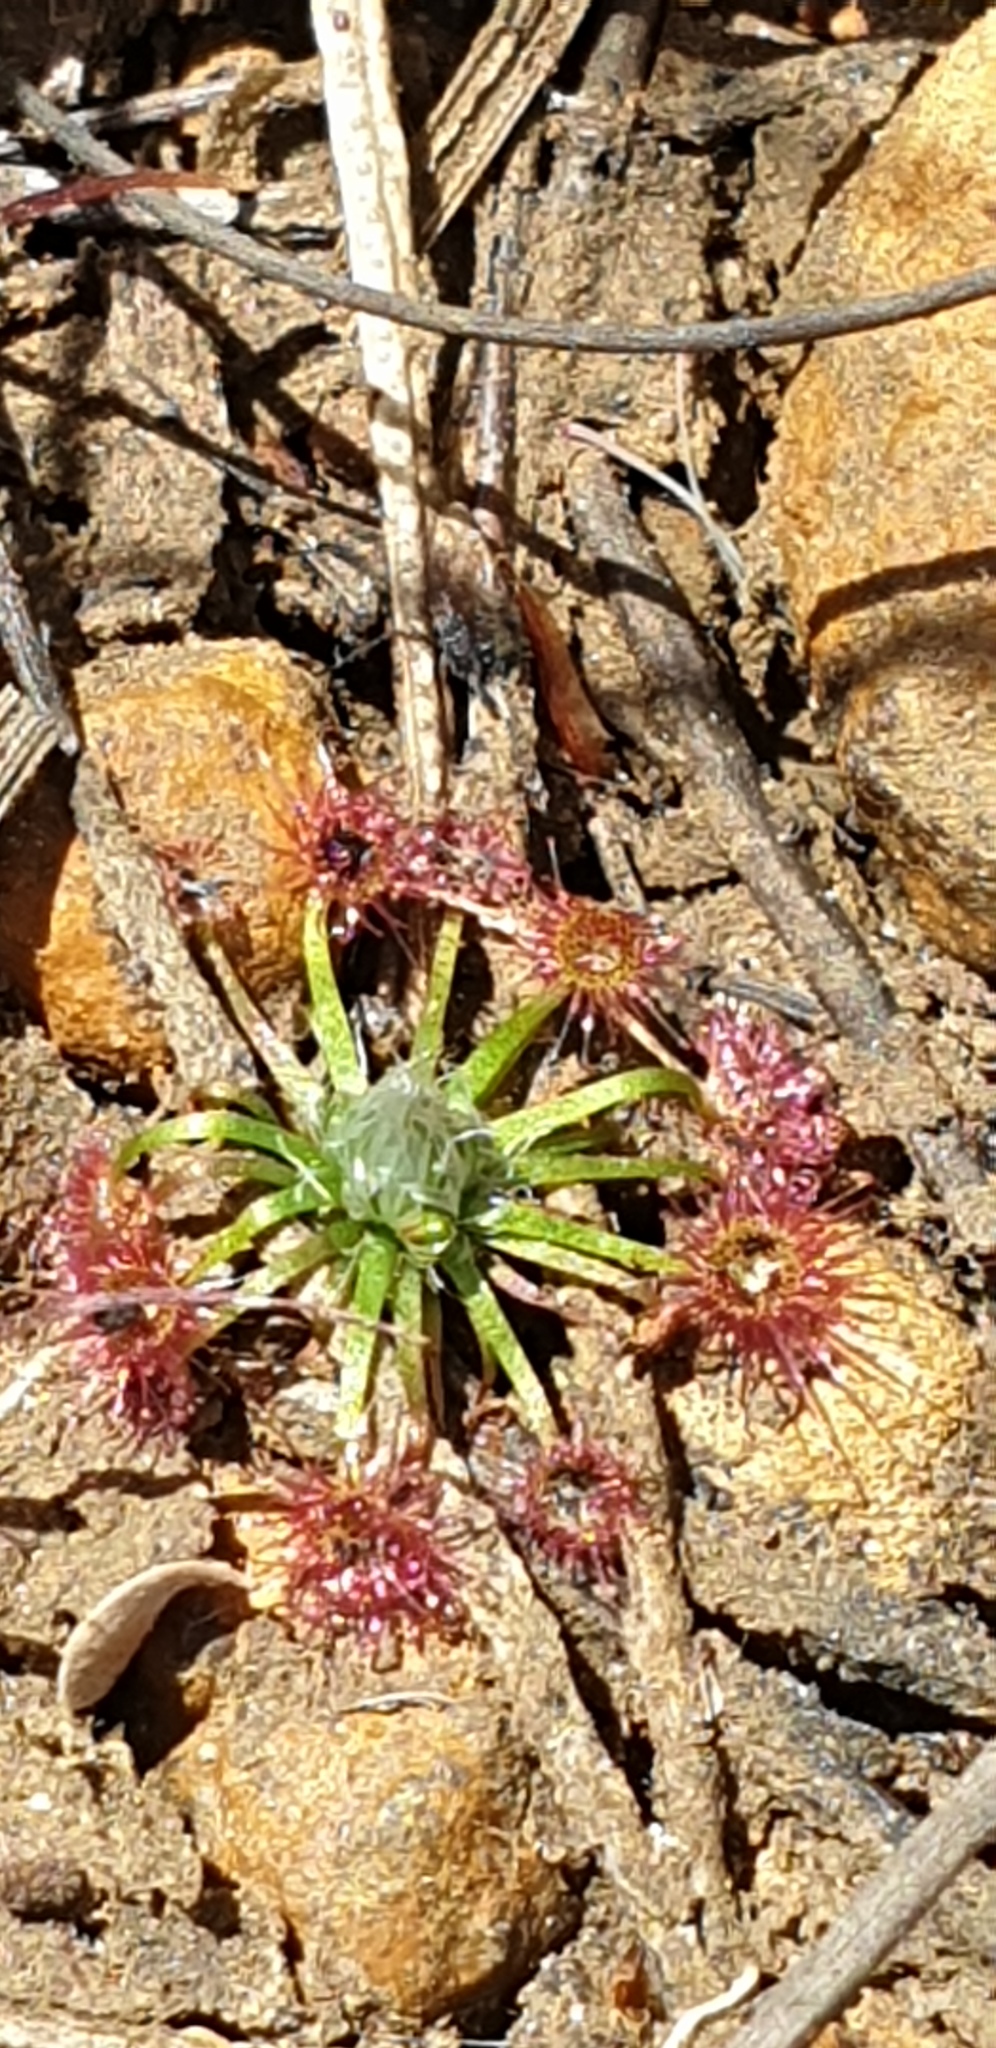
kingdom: Plantae
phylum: Tracheophyta
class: Magnoliopsida
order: Caryophyllales
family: Droseraceae
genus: Drosera
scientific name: Drosera pygmaea
